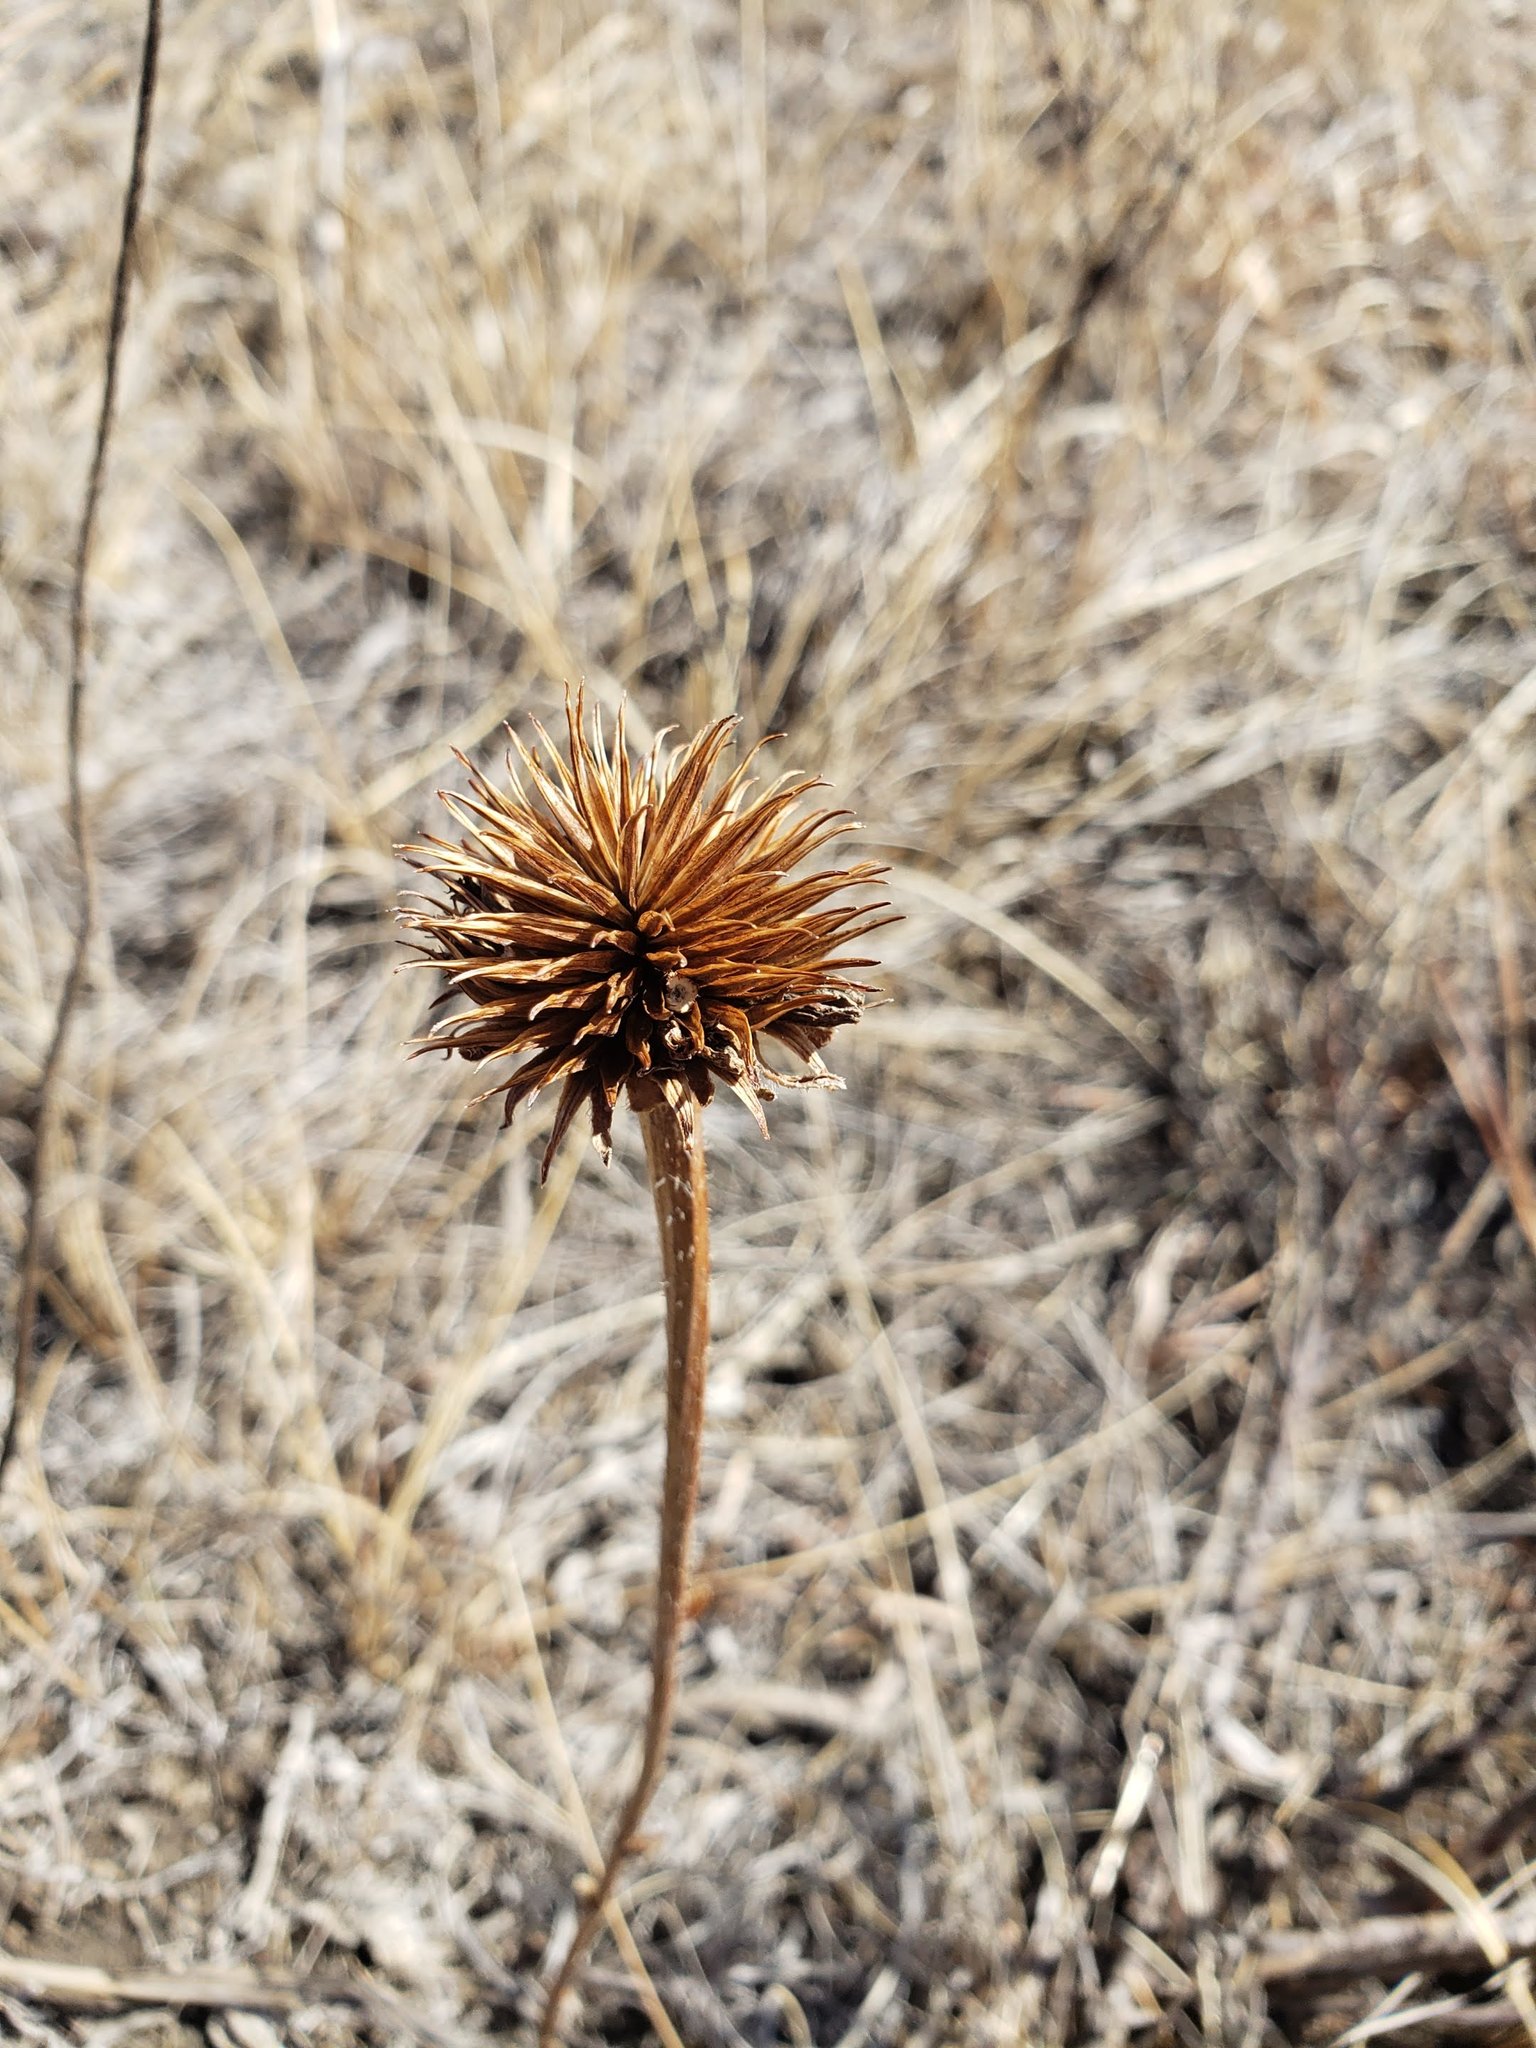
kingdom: Plantae
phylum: Tracheophyta
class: Magnoliopsida
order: Asterales
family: Asteraceae
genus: Echinacea
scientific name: Echinacea angustifolia
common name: Black-sampson echinacea
